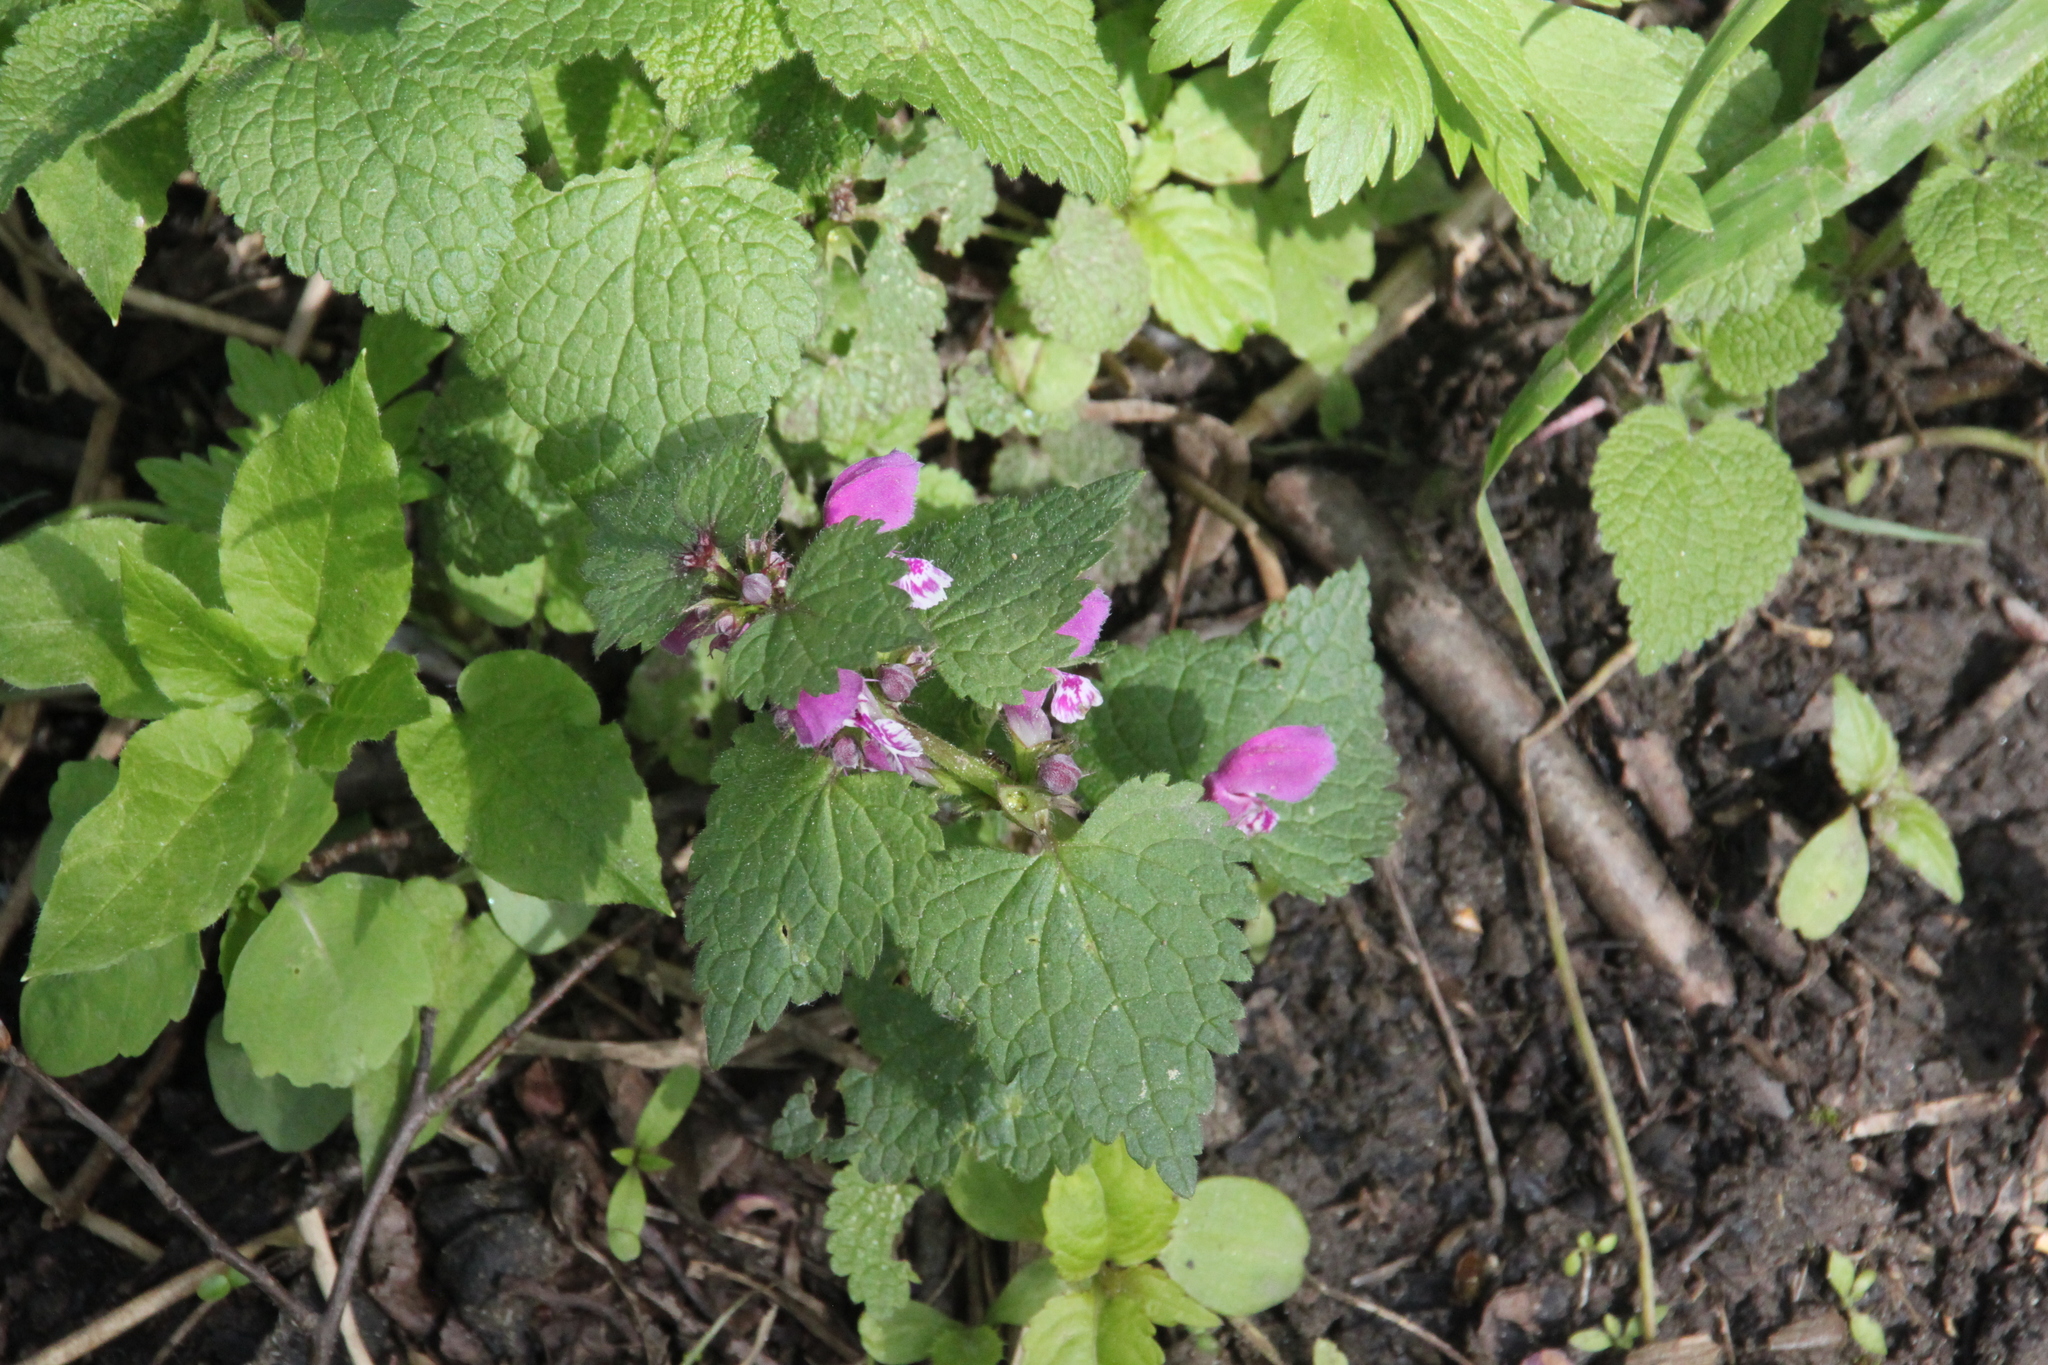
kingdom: Plantae
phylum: Tracheophyta
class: Magnoliopsida
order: Lamiales
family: Lamiaceae
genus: Lamium
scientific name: Lamium maculatum
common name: Spotted dead-nettle
